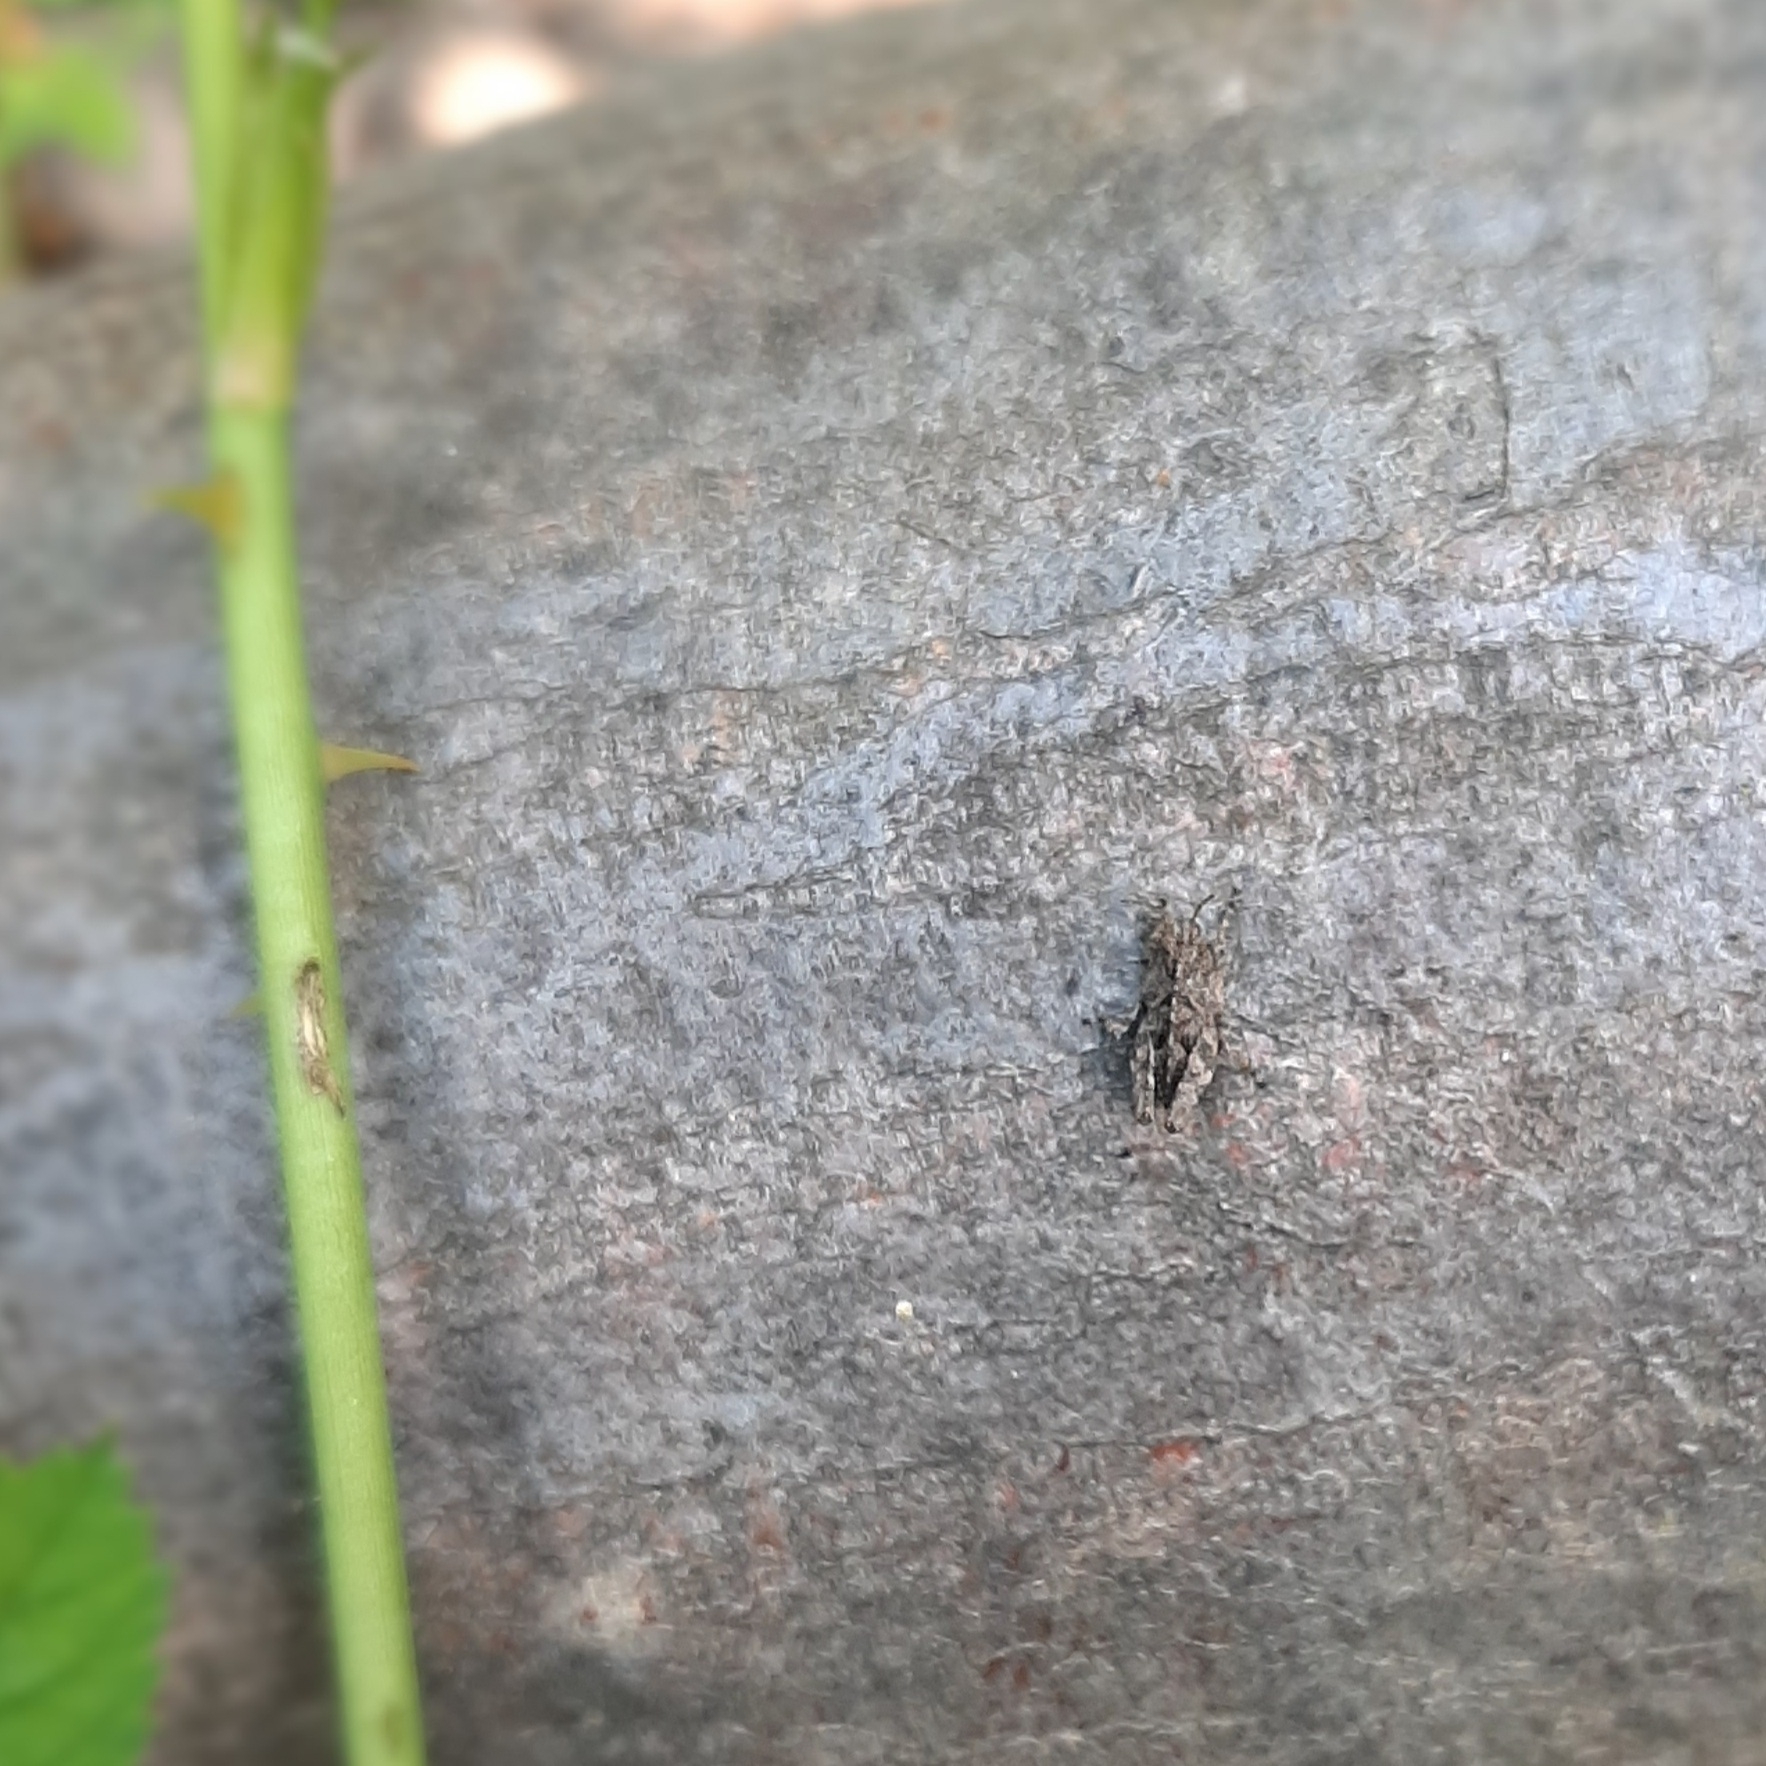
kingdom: Animalia
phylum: Arthropoda
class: Insecta
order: Orthoptera
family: Tetrigidae
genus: Tetrix
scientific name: Tetrix
